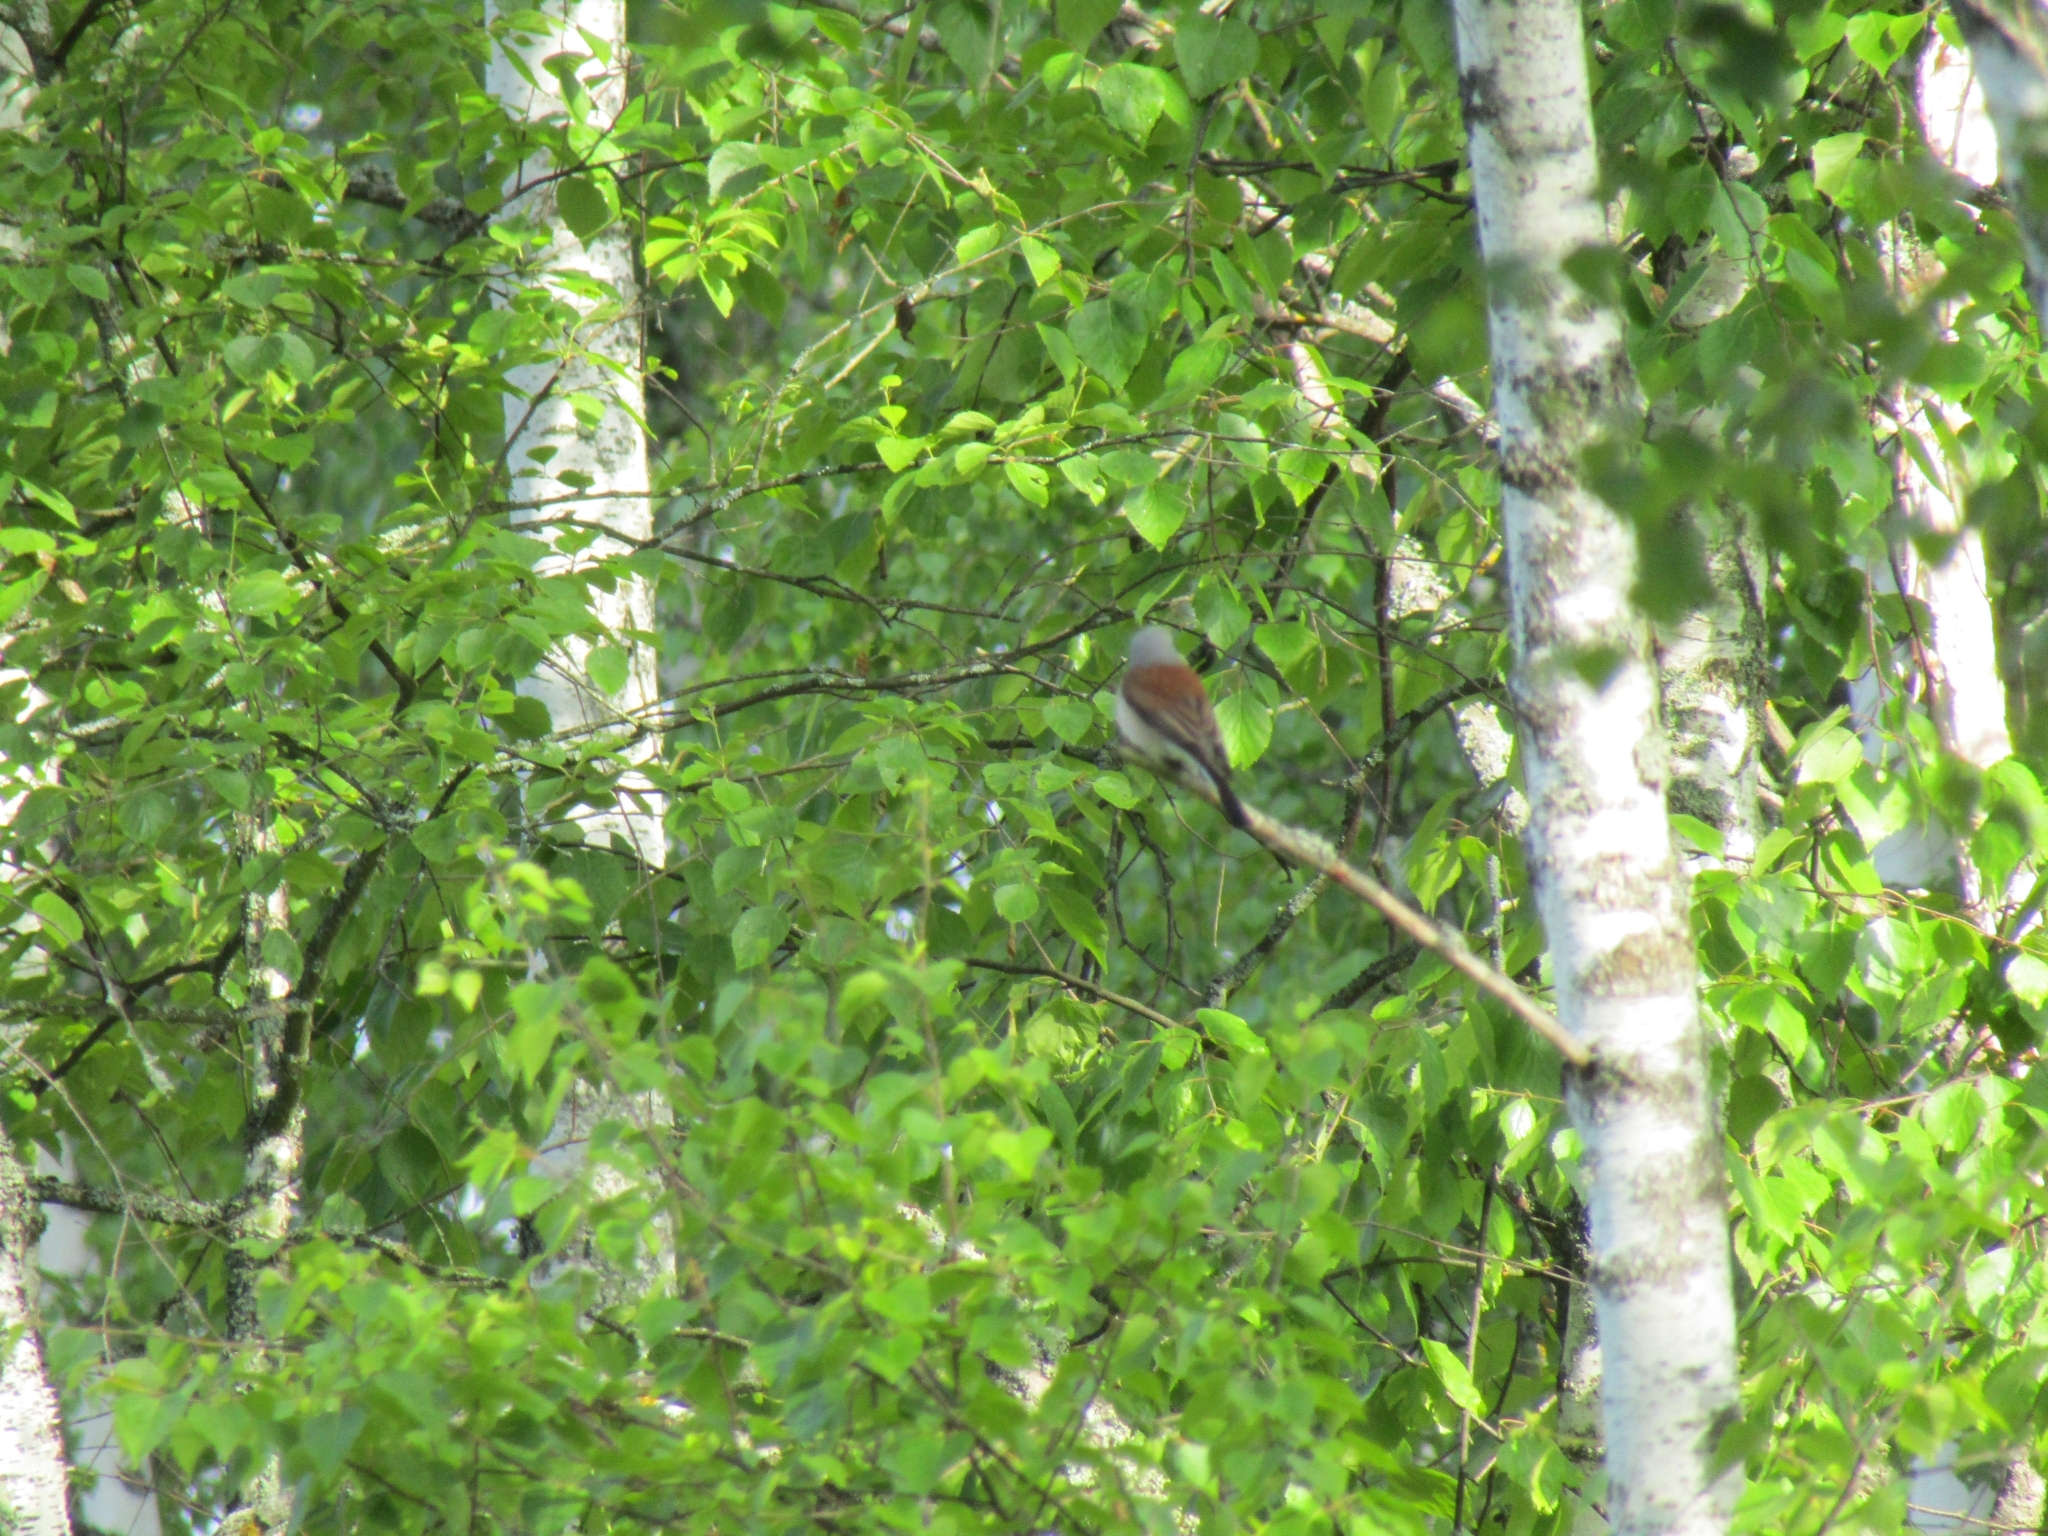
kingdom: Animalia
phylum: Chordata
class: Aves
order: Passeriformes
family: Laniidae
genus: Lanius
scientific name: Lanius collurio
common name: Red-backed shrike
